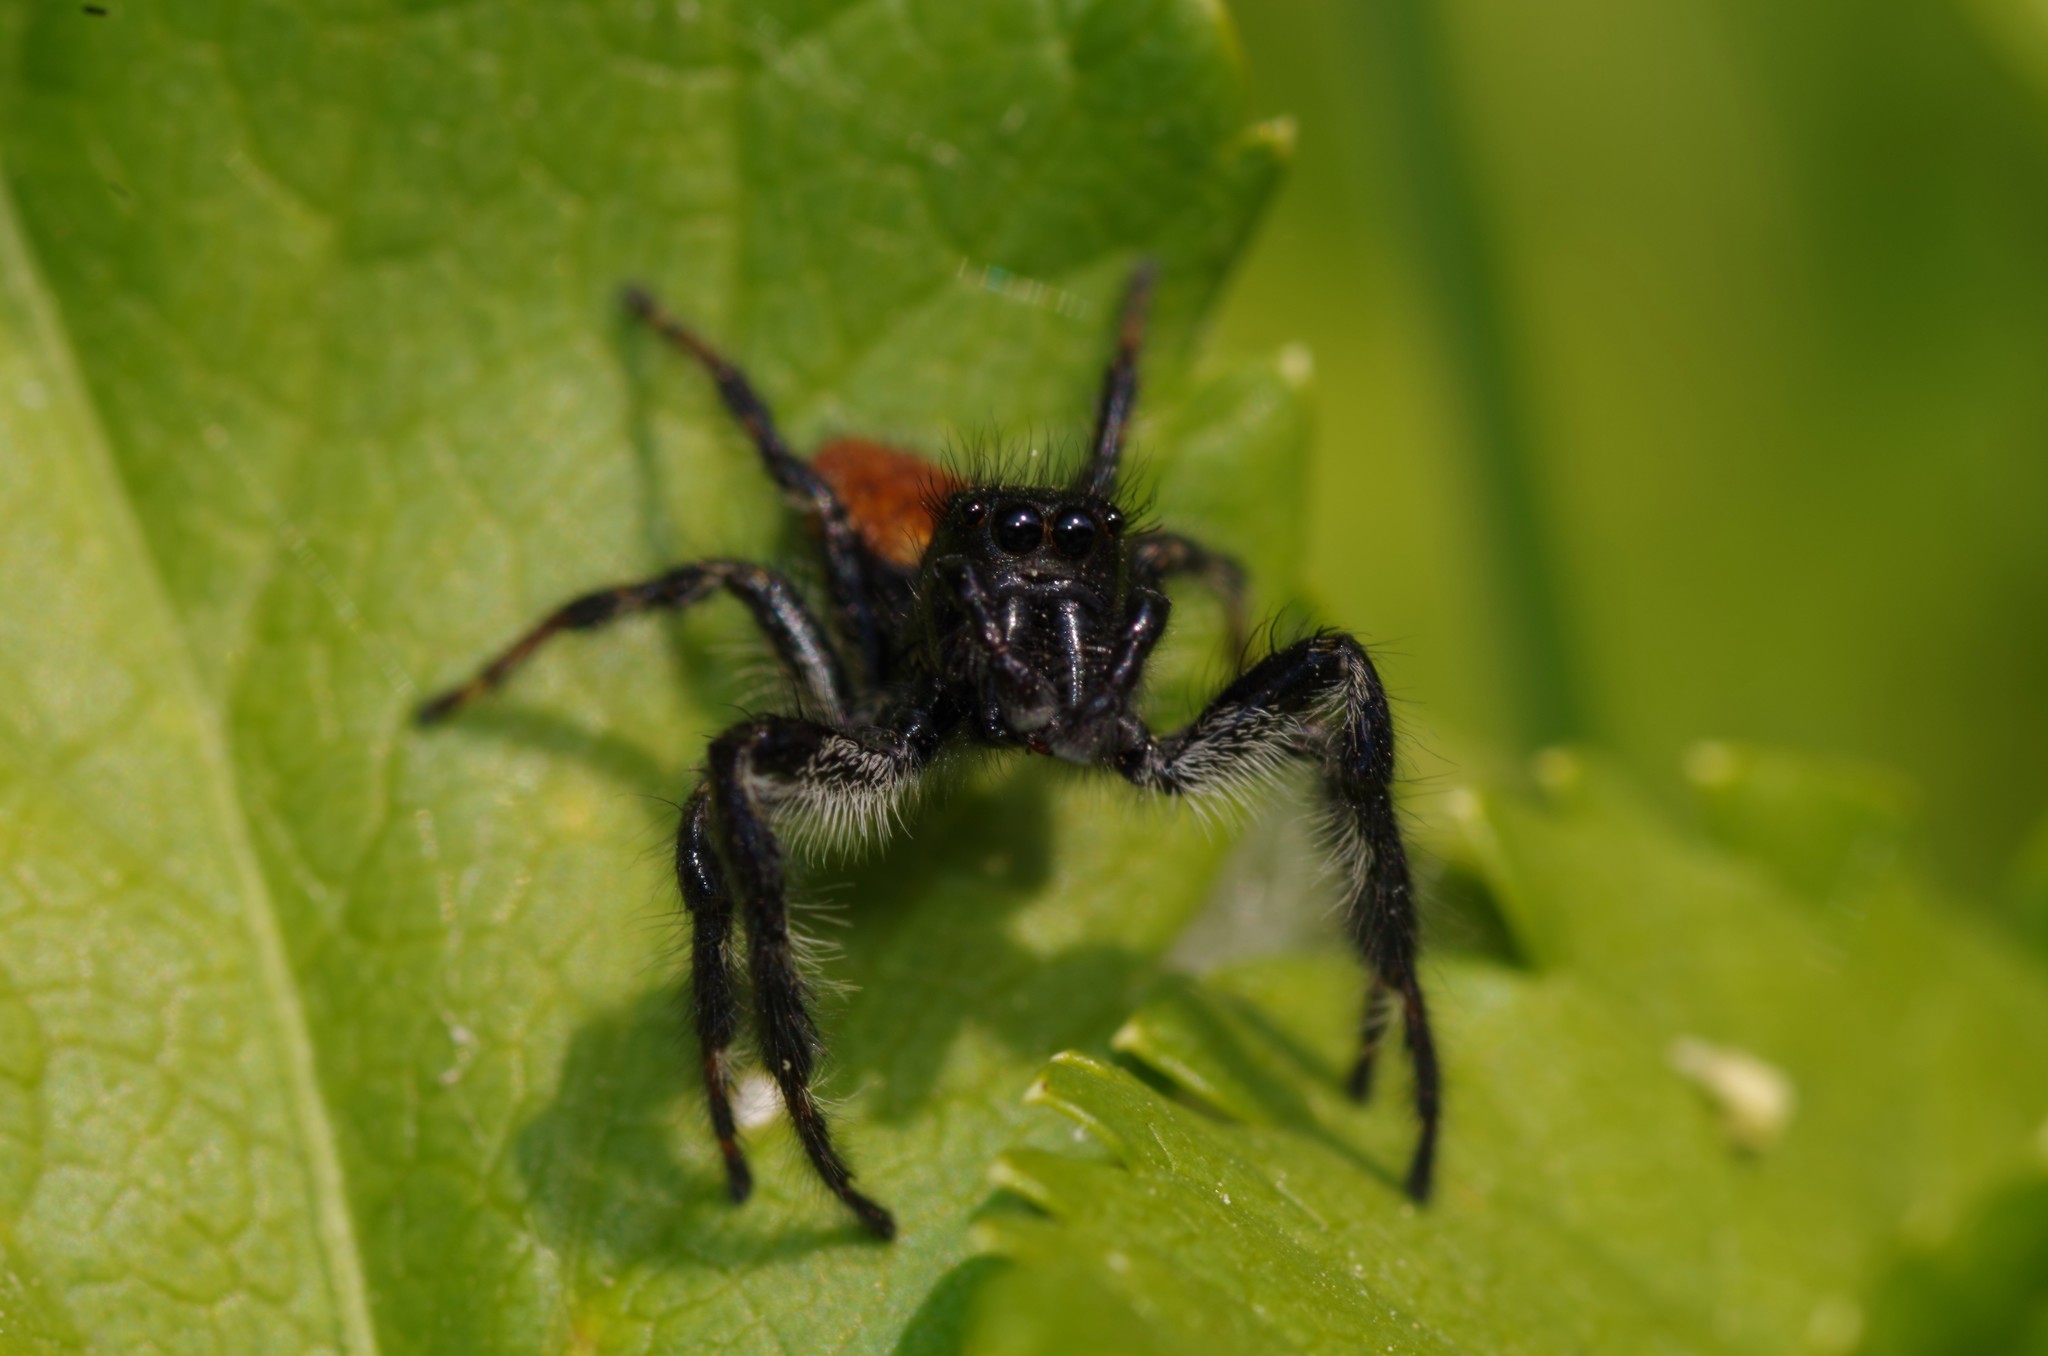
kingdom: Animalia
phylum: Arthropoda
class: Arachnida
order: Araneae
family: Salticidae
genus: Carrhotus
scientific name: Carrhotus xanthogramma
